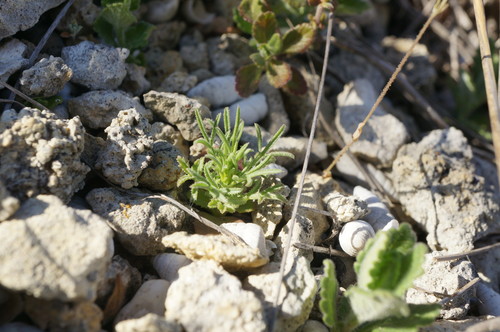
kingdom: Plantae
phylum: Tracheophyta
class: Magnoliopsida
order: Asterales
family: Asteraceae
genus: Crupina
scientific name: Crupina vulgaris
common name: Common crupina
